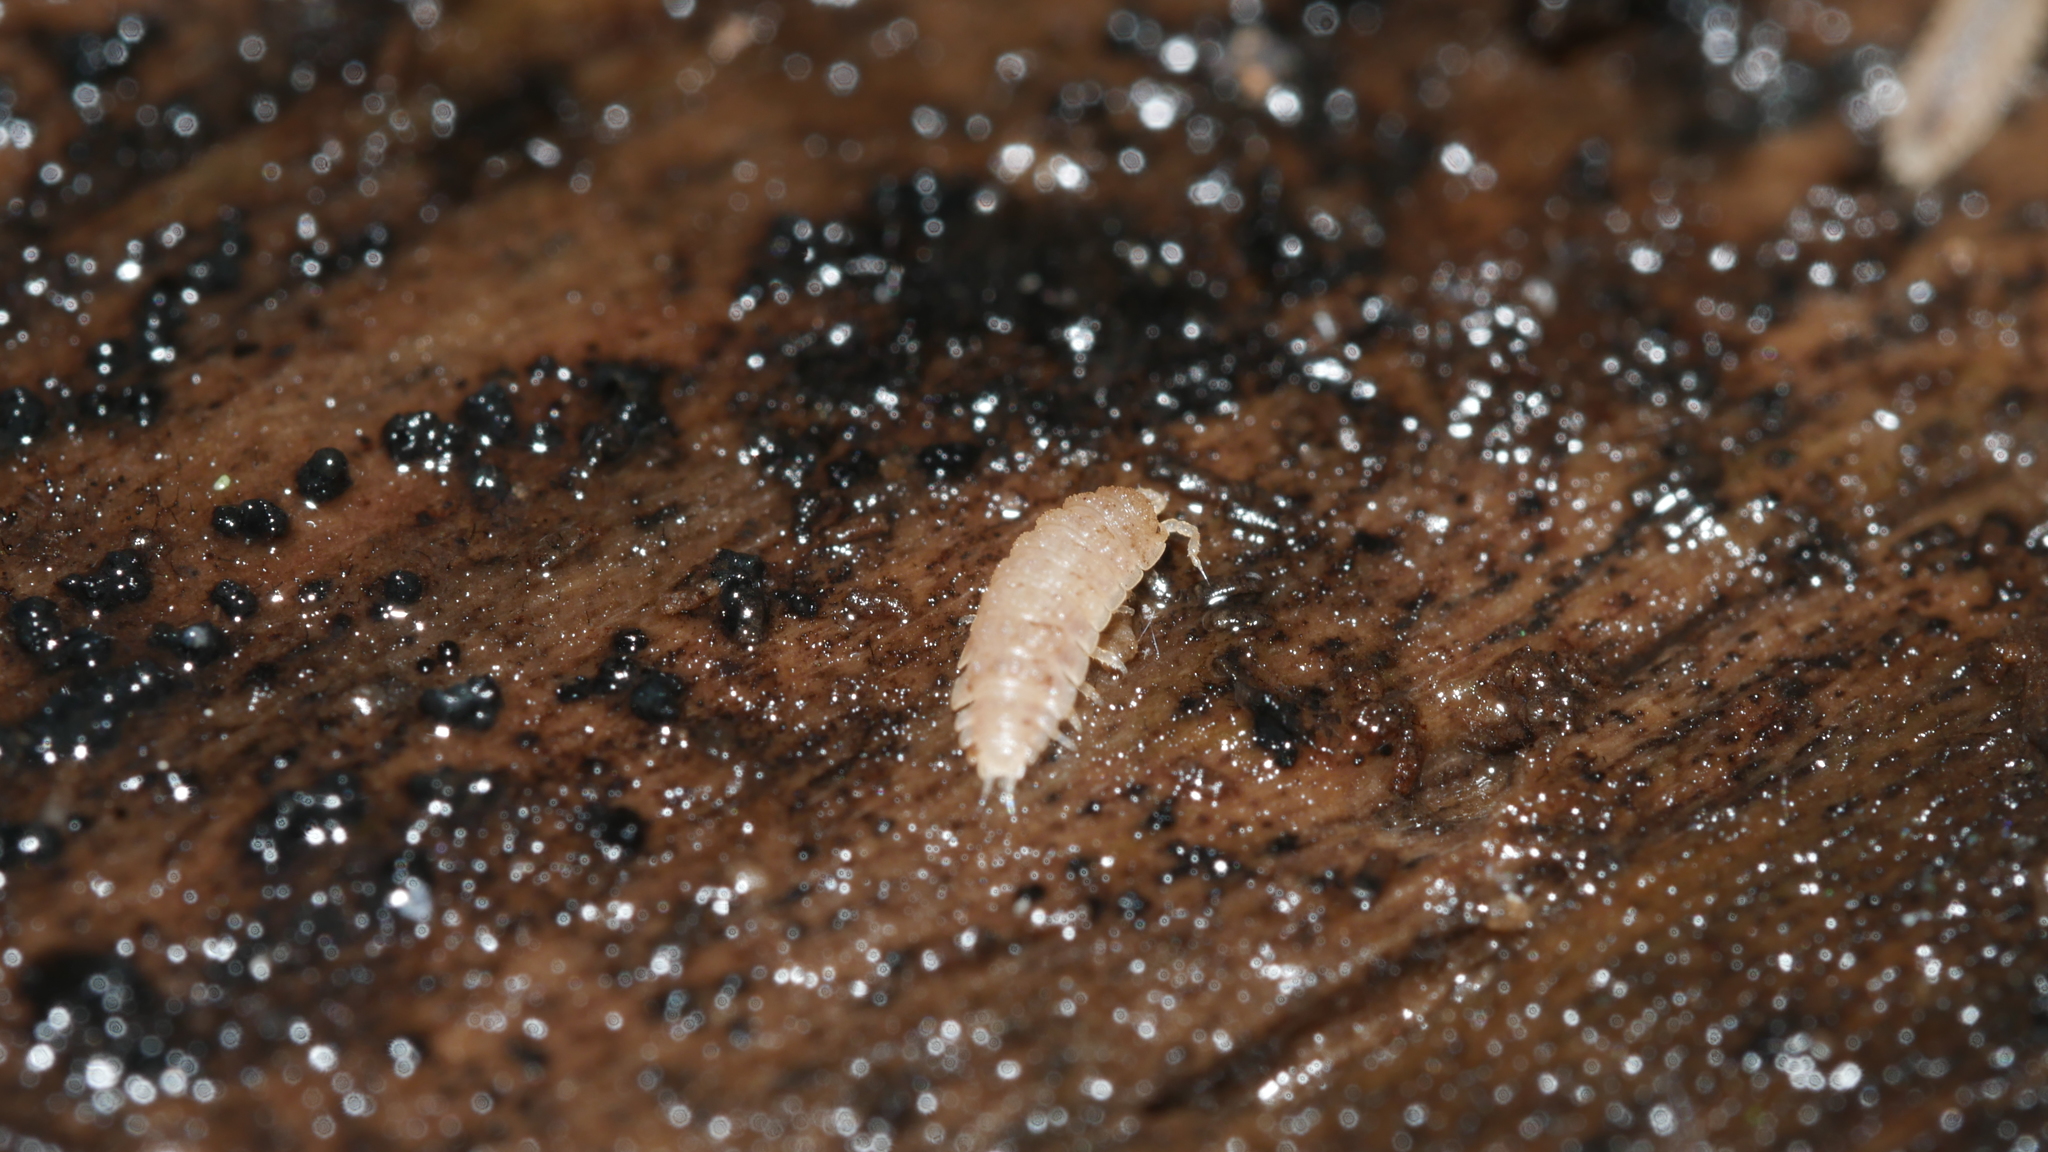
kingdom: Animalia
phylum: Arthropoda
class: Malacostraca
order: Isopoda
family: Trichoniscidae
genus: Haplophthalmus
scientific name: Haplophthalmus danicus
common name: Pillbug
